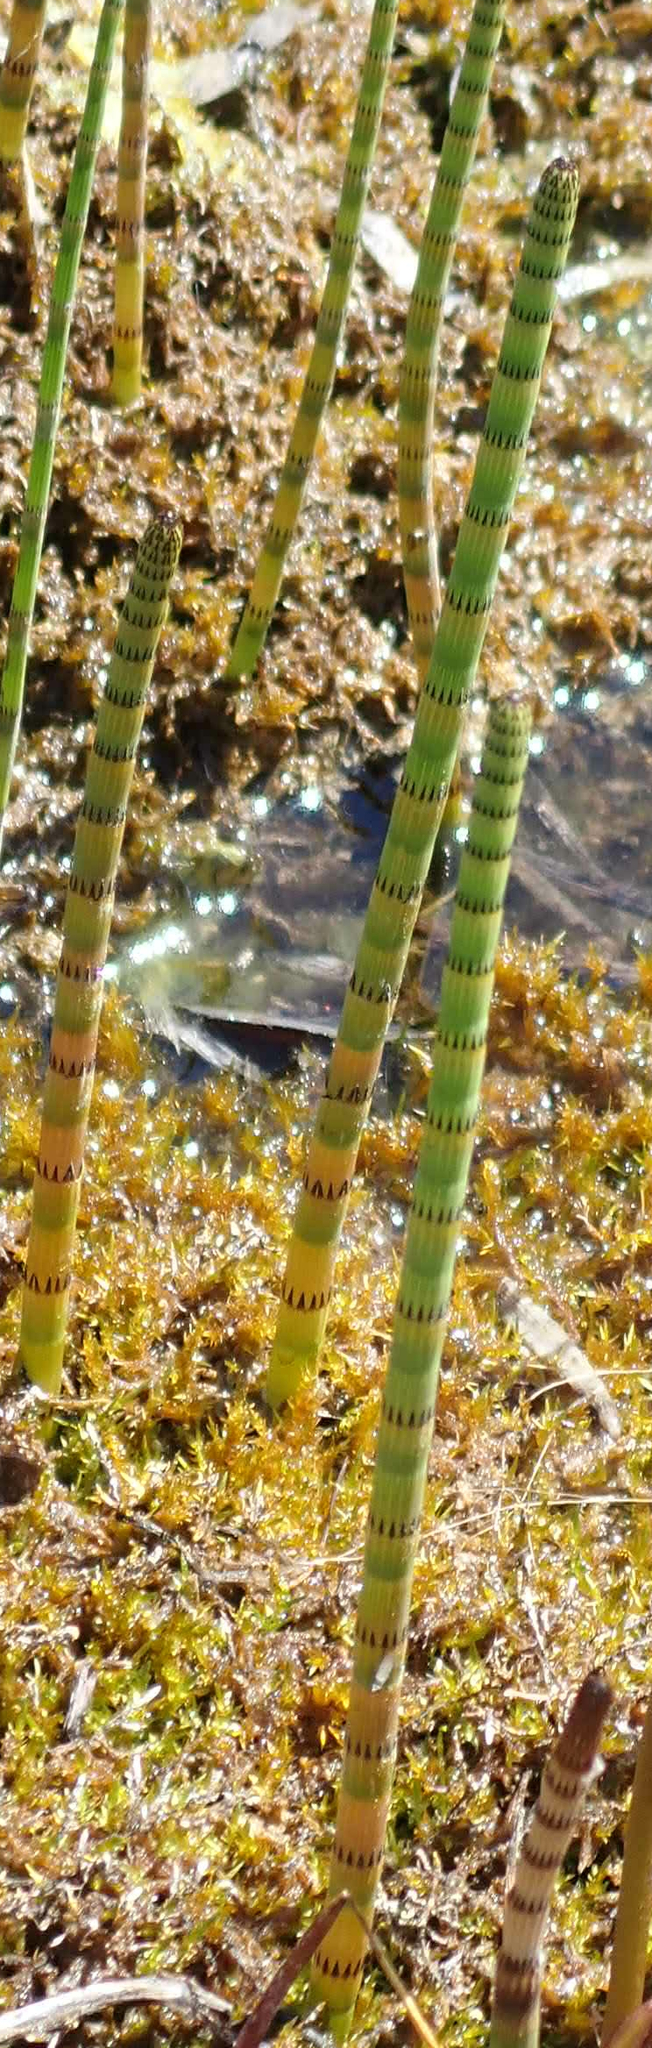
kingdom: Plantae
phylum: Tracheophyta
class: Polypodiopsida
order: Equisetales
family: Equisetaceae
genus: Equisetum
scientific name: Equisetum fluviatile
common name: Water horsetail
